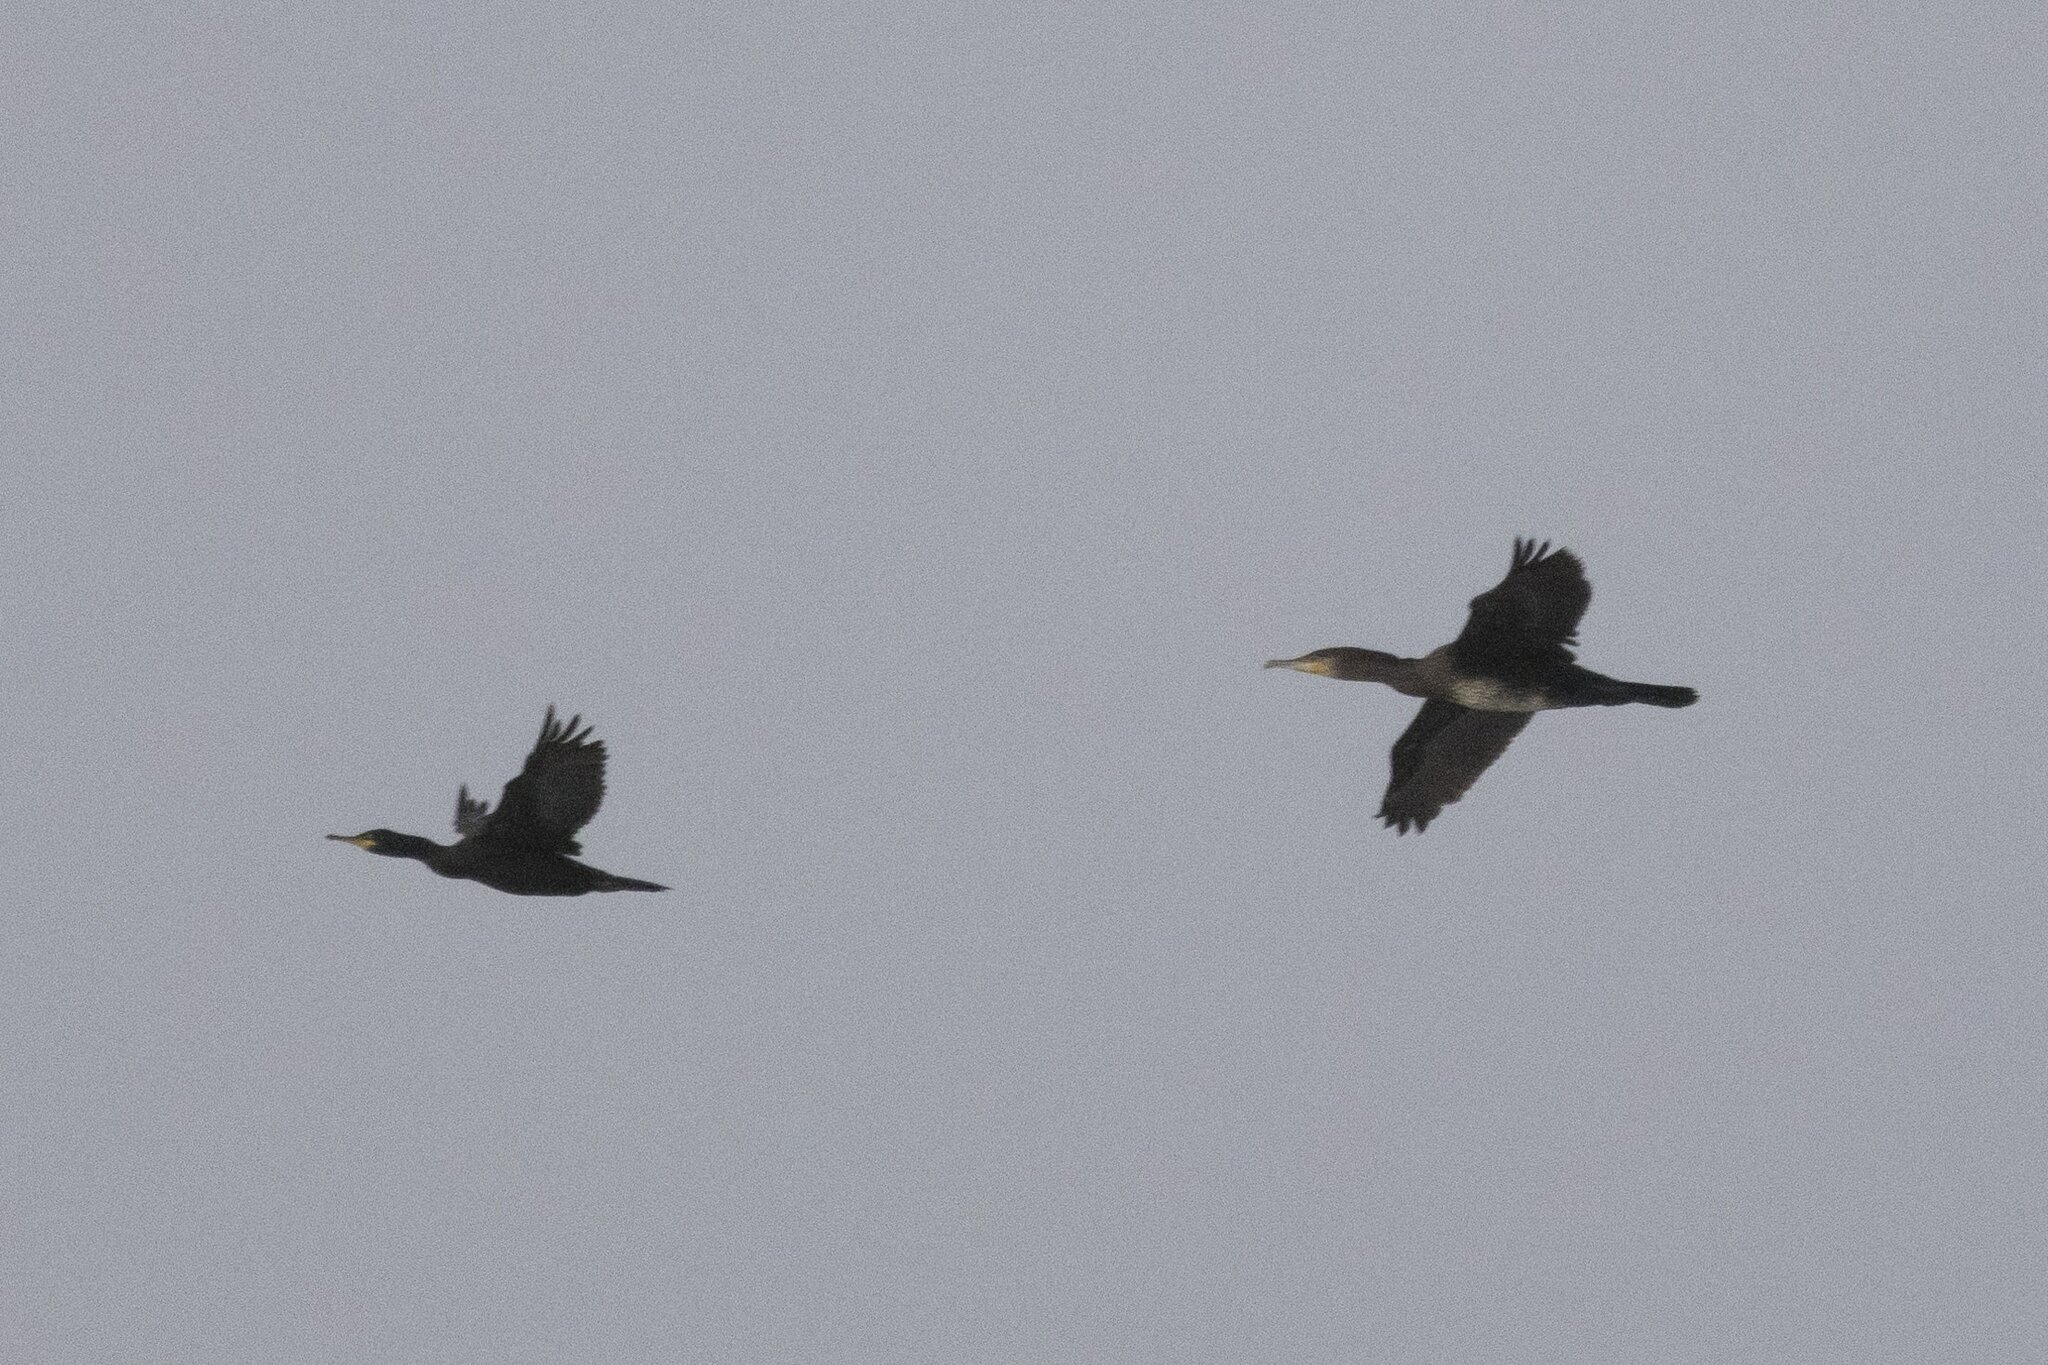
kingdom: Animalia
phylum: Chordata
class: Aves
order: Suliformes
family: Phalacrocoracidae
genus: Phalacrocorax
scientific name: Phalacrocorax carbo
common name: Great cormorant
